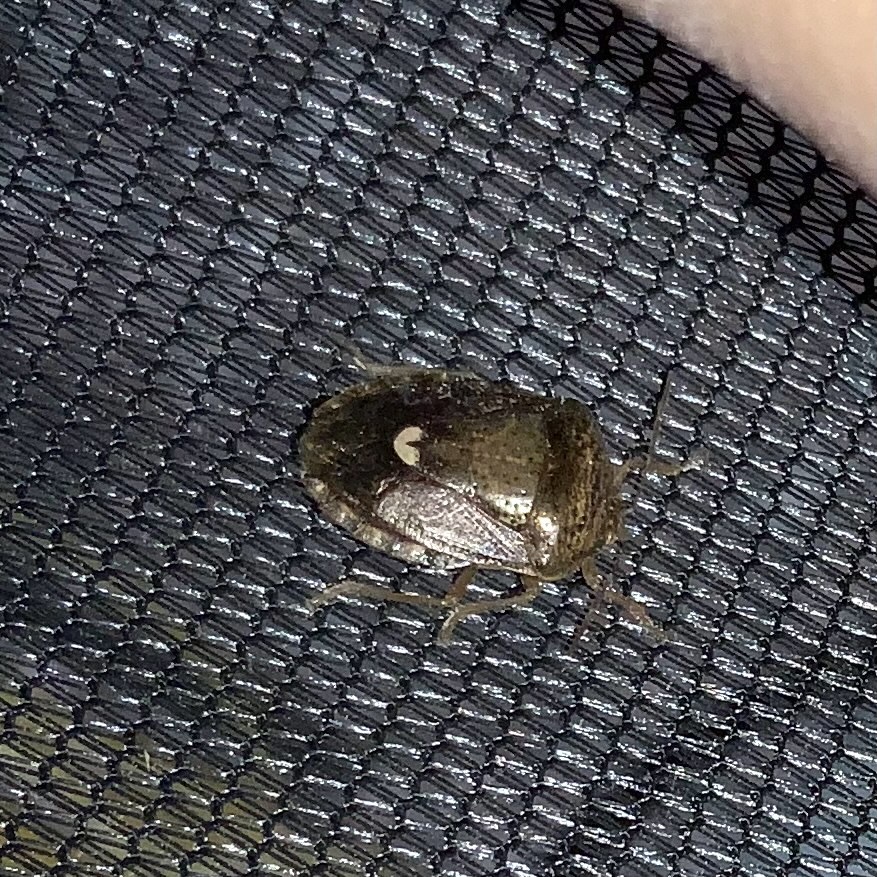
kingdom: Animalia
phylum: Arthropoda
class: Insecta
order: Hemiptera
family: Pentatomidae
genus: Edessa
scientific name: Edessa bifida
